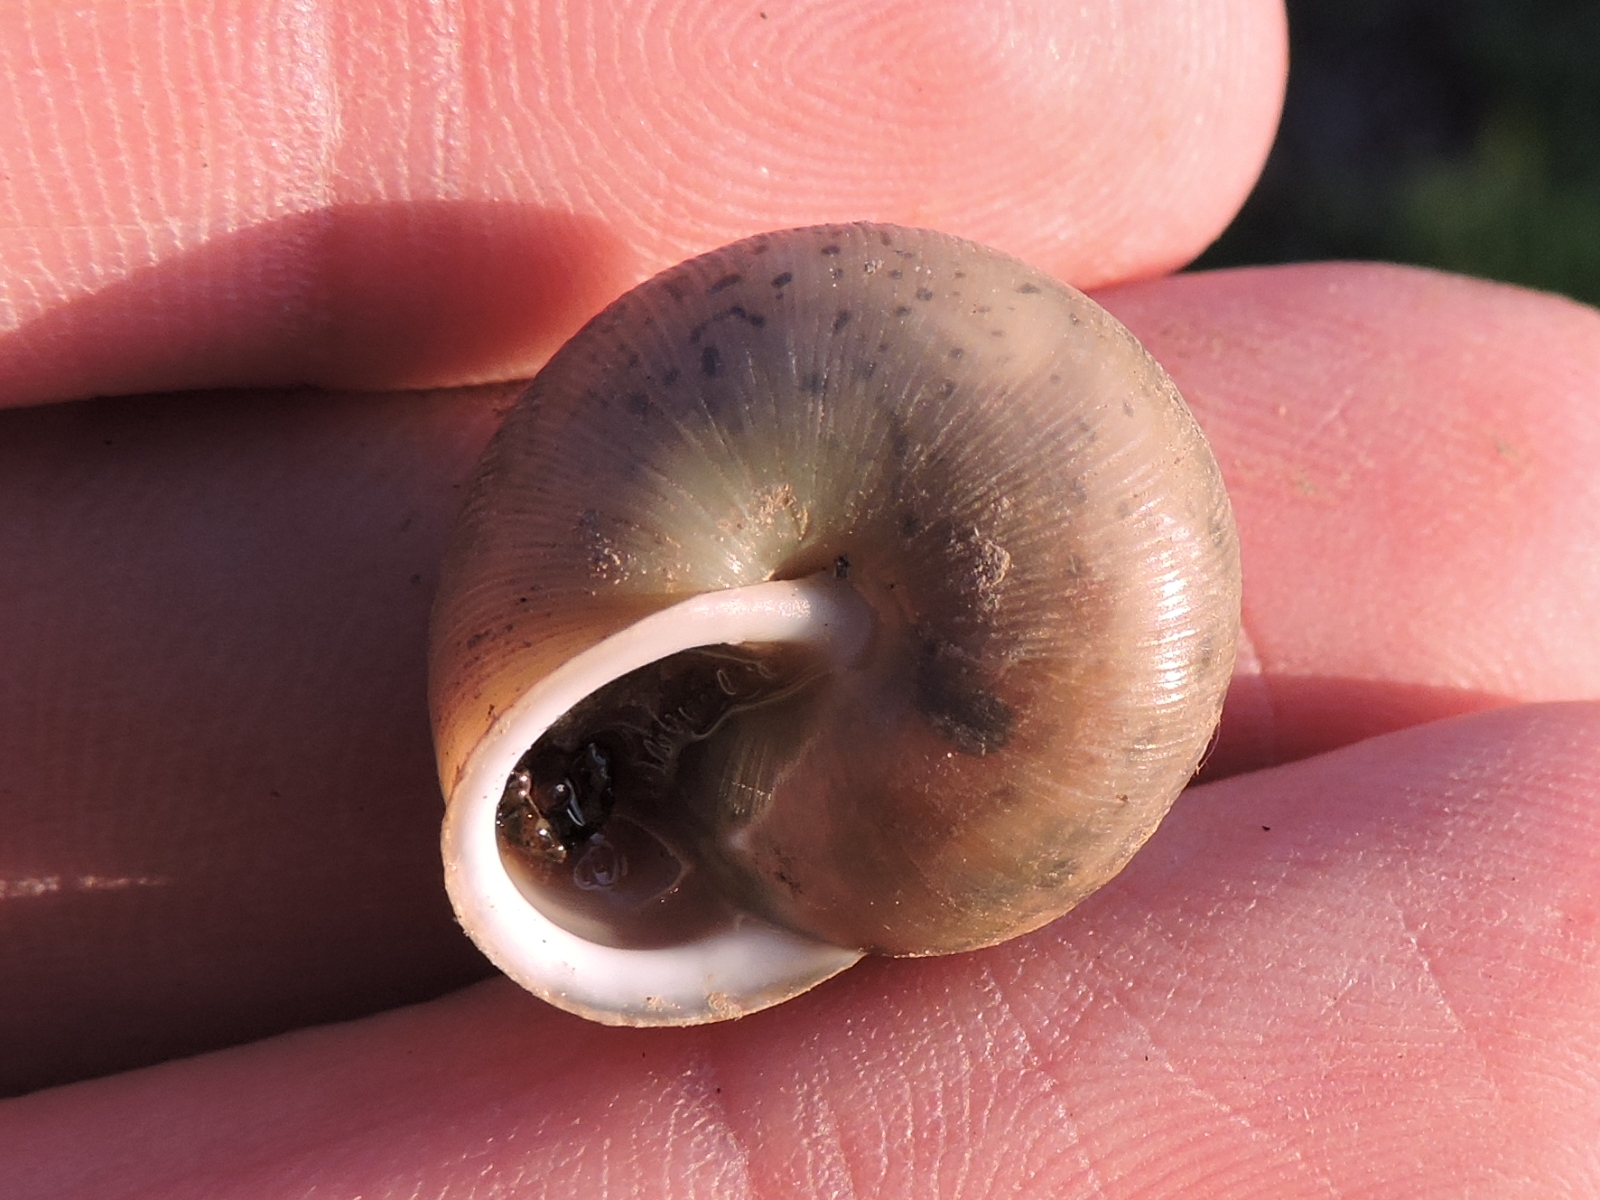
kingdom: Animalia
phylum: Mollusca
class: Gastropoda
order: Stylommatophora
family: Polygyridae
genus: Patera
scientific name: Patera roemeri
